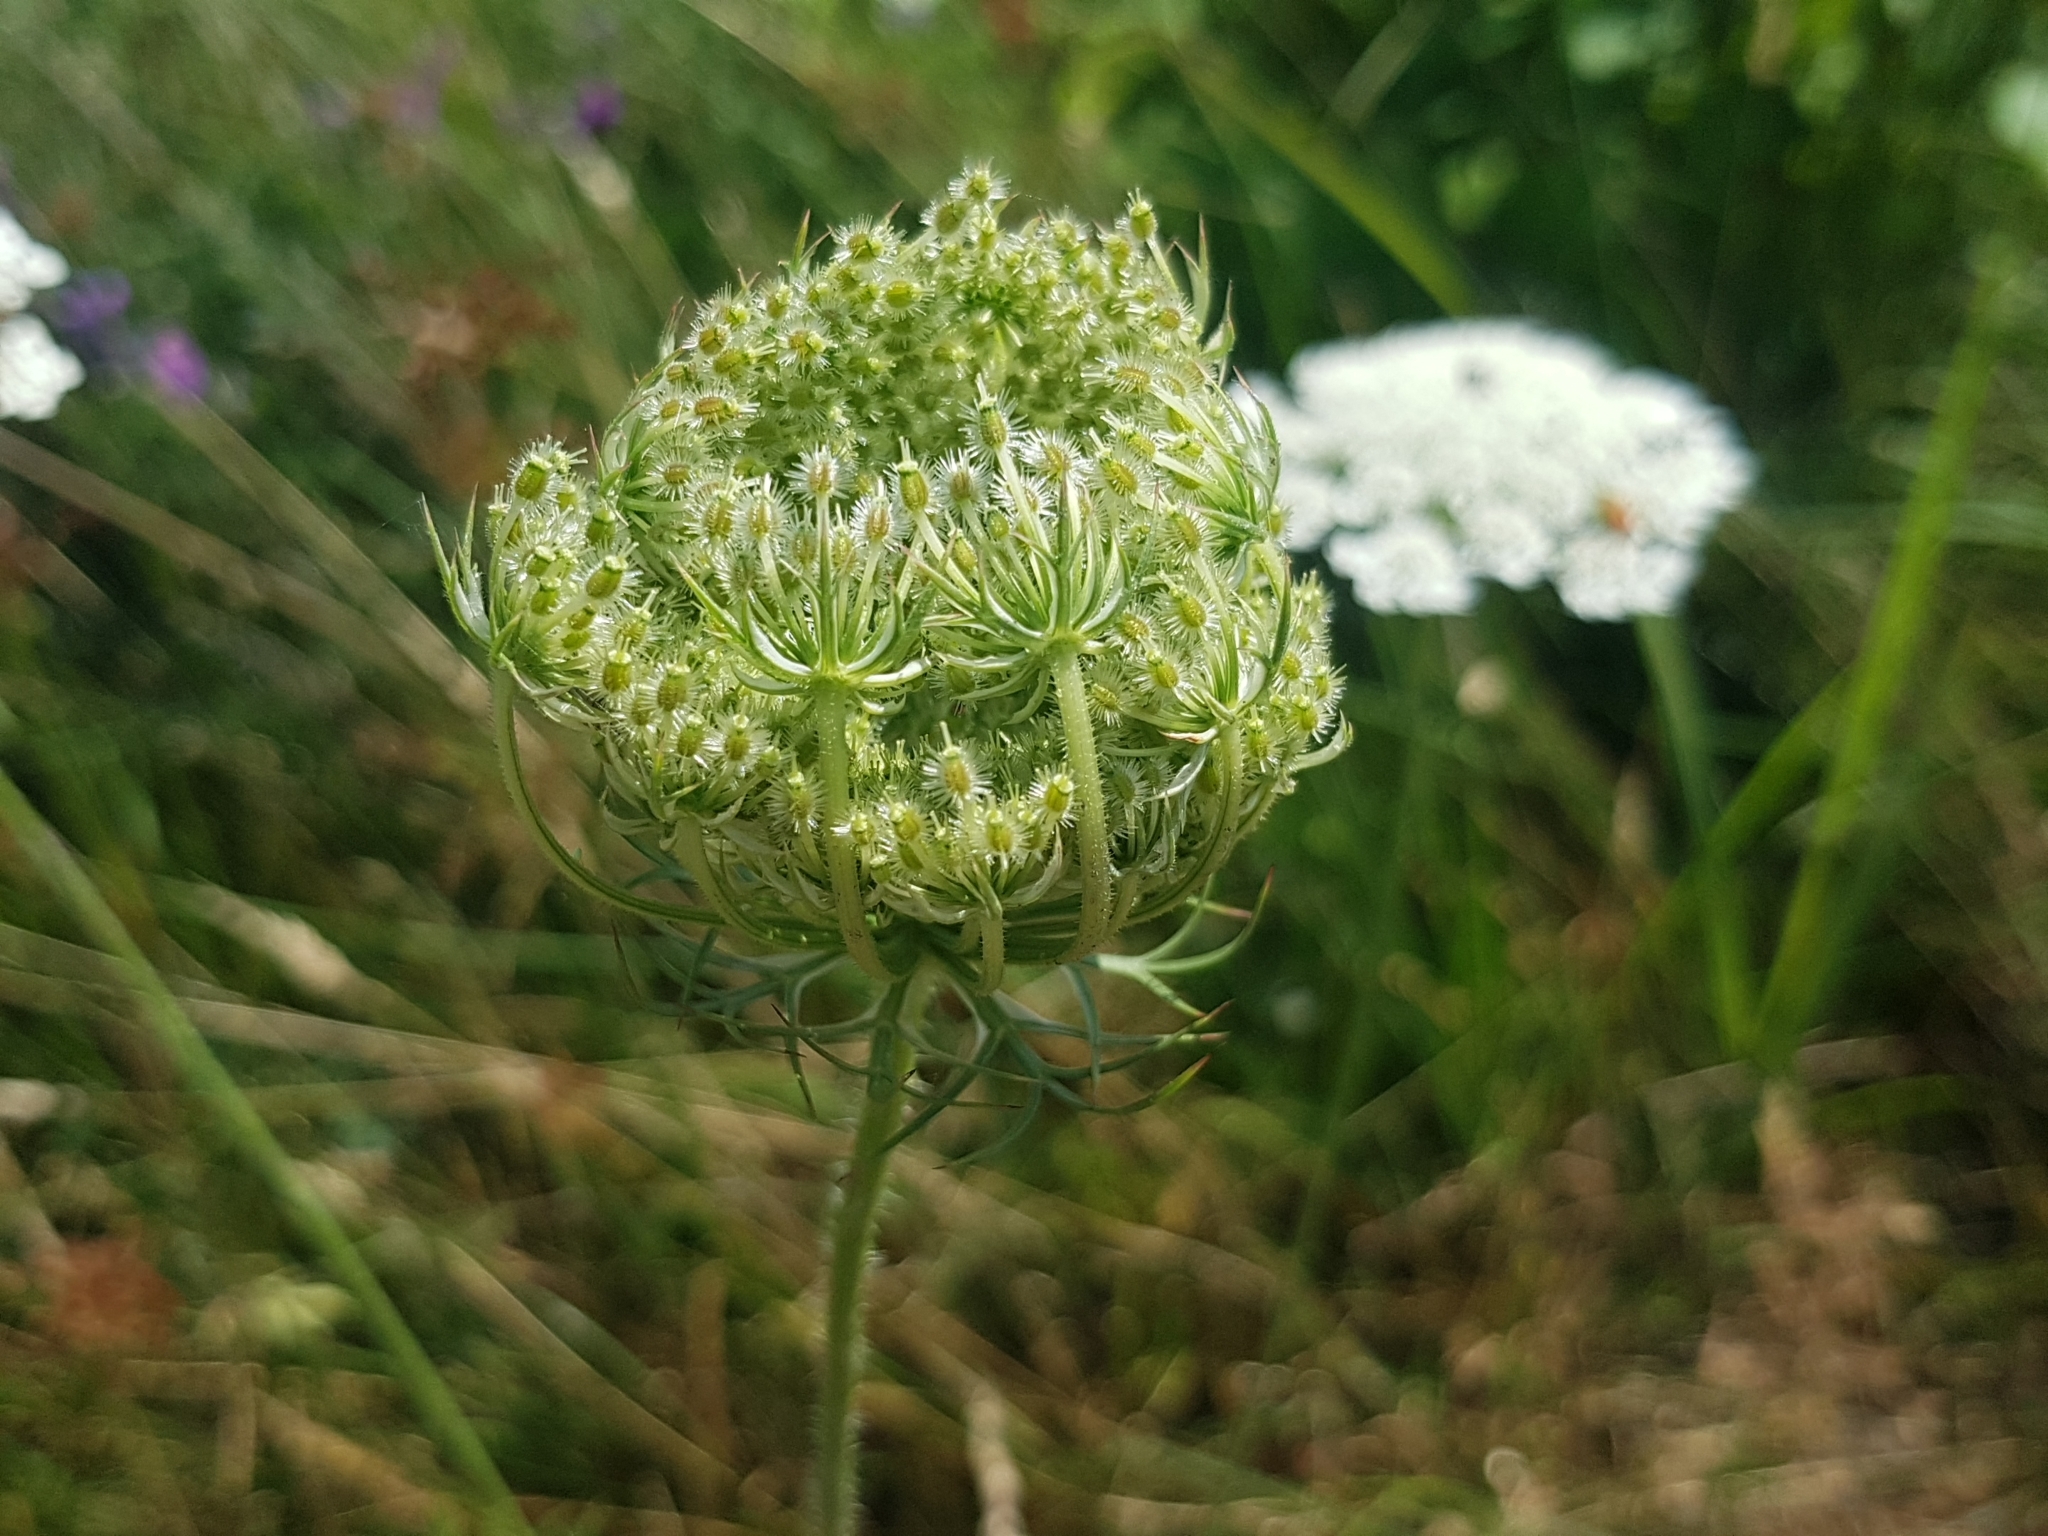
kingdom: Plantae
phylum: Tracheophyta
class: Magnoliopsida
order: Apiales
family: Apiaceae
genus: Daucus
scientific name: Daucus carota
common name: Wild carrot
